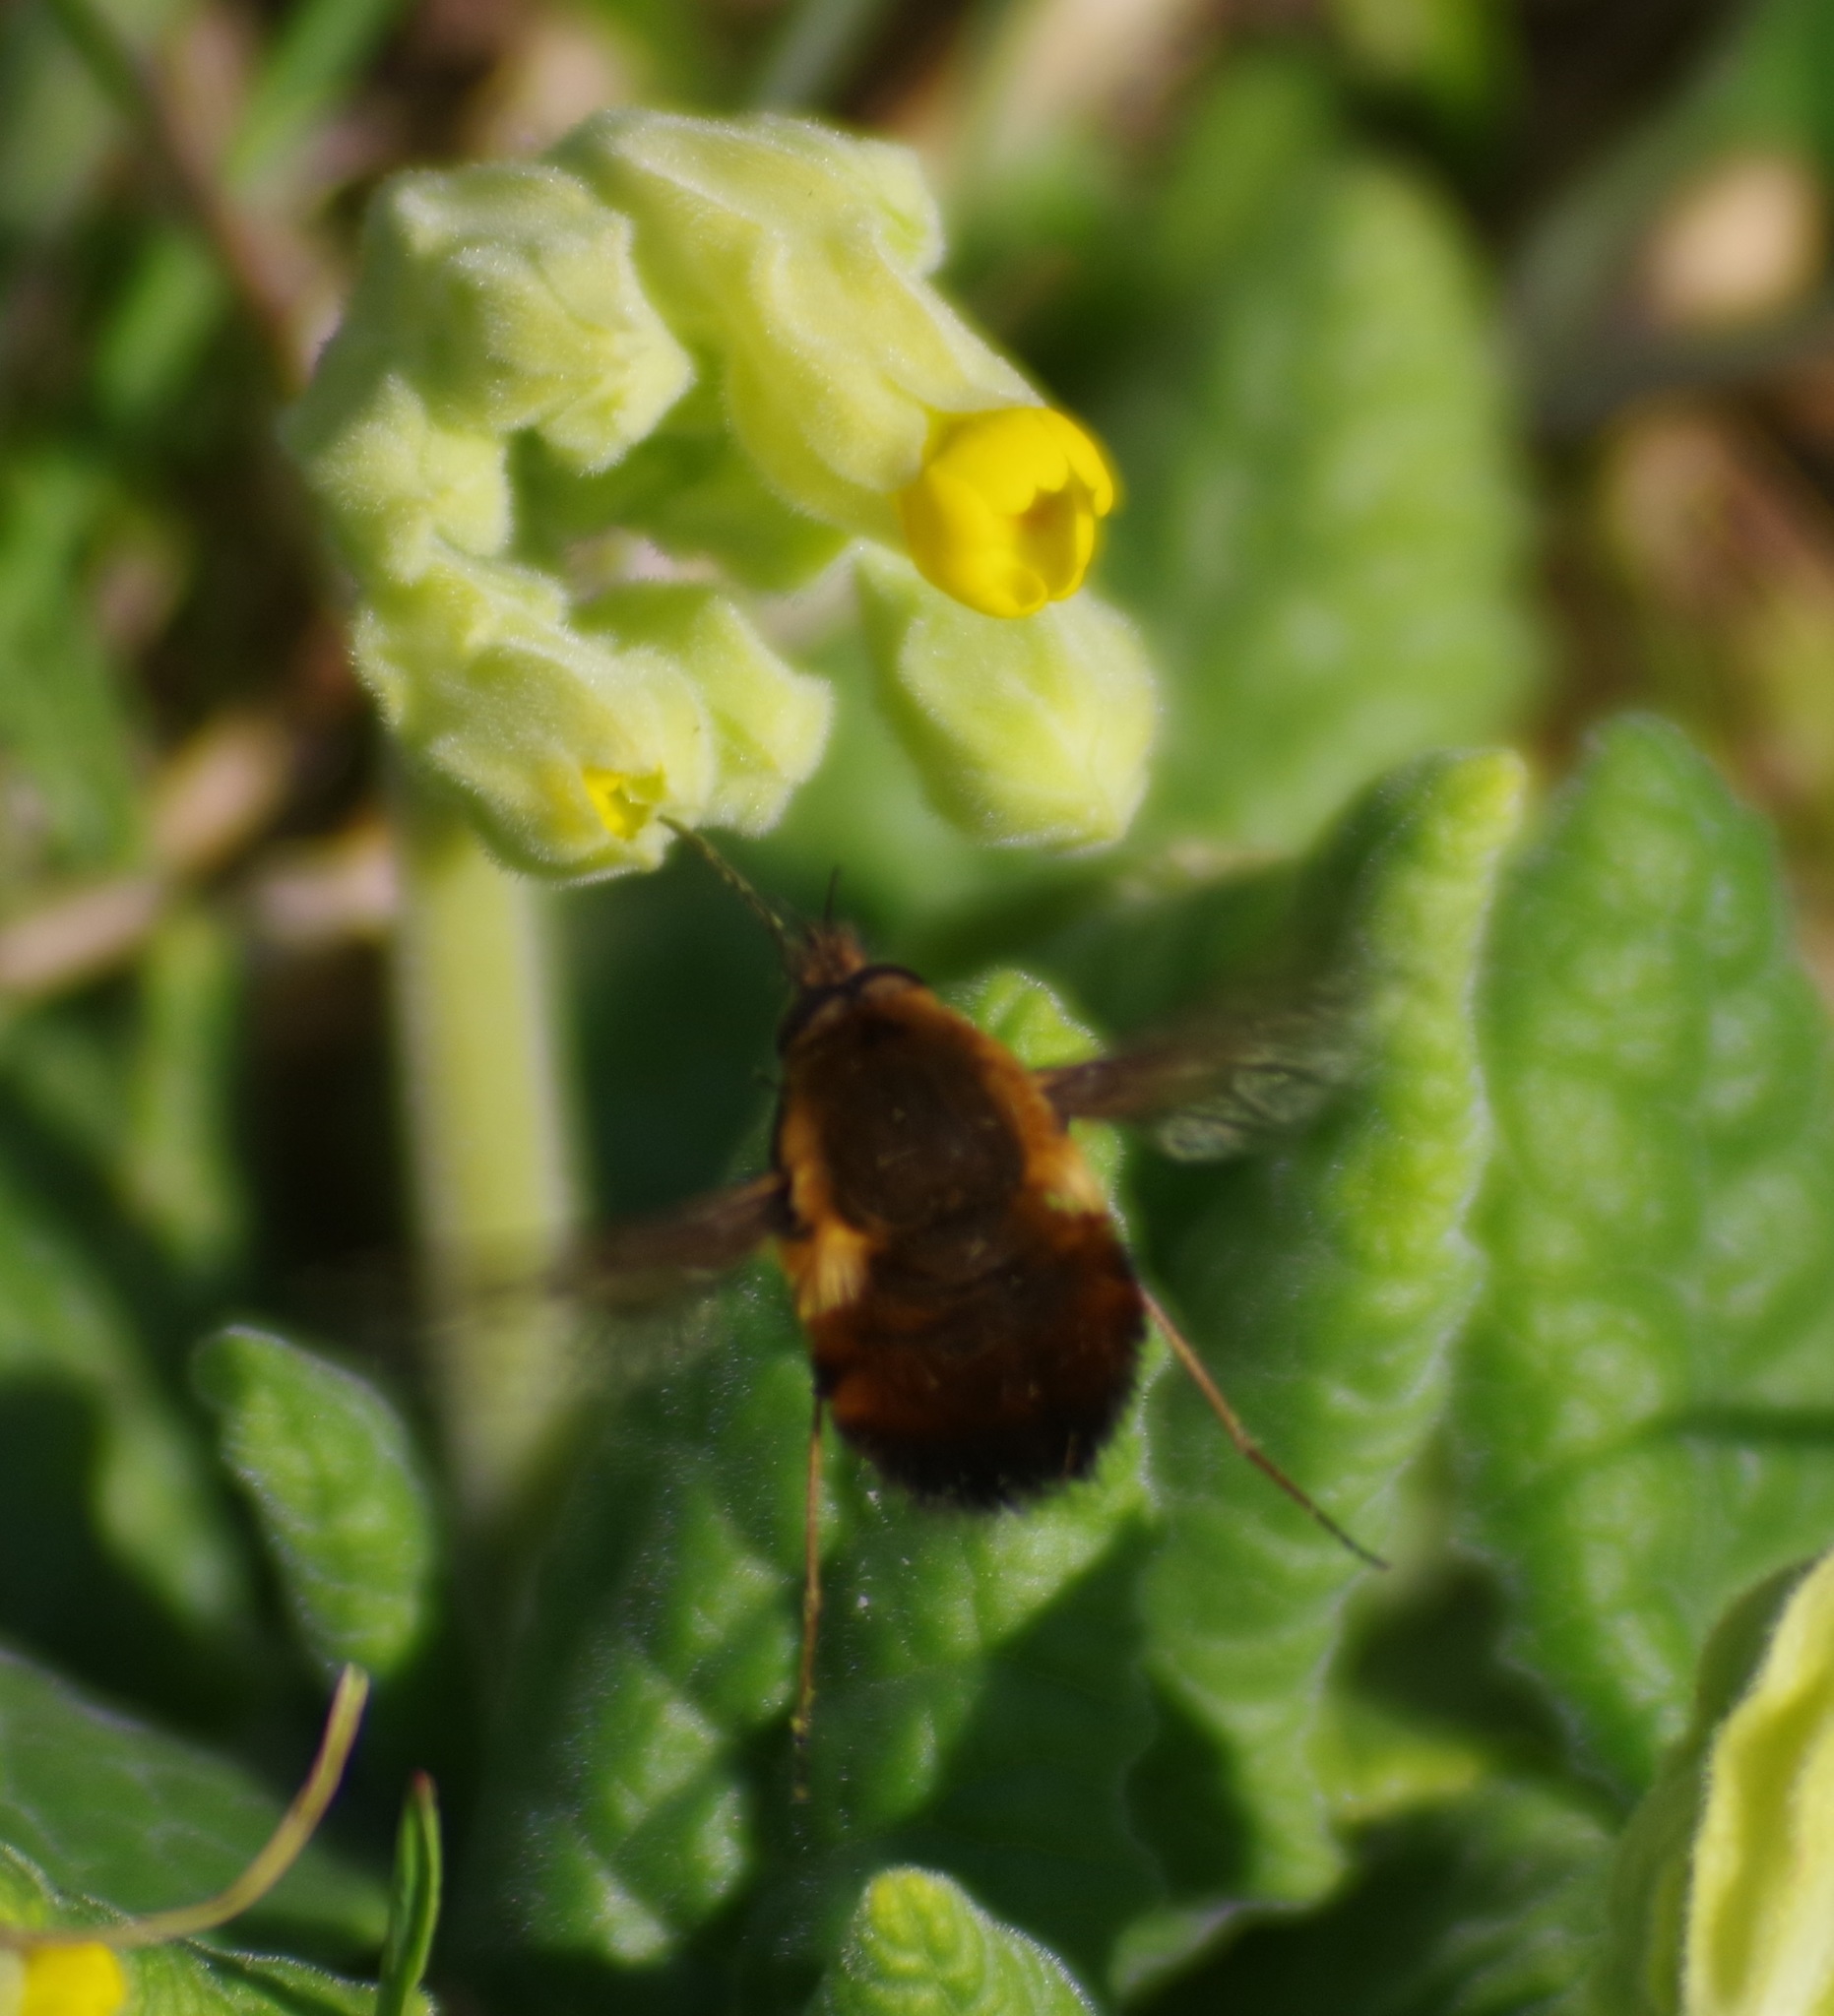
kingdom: Animalia
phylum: Arthropoda
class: Insecta
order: Diptera
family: Bombyliidae
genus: Bombylius
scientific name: Bombylius discolor
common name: Dotted bee-fly
